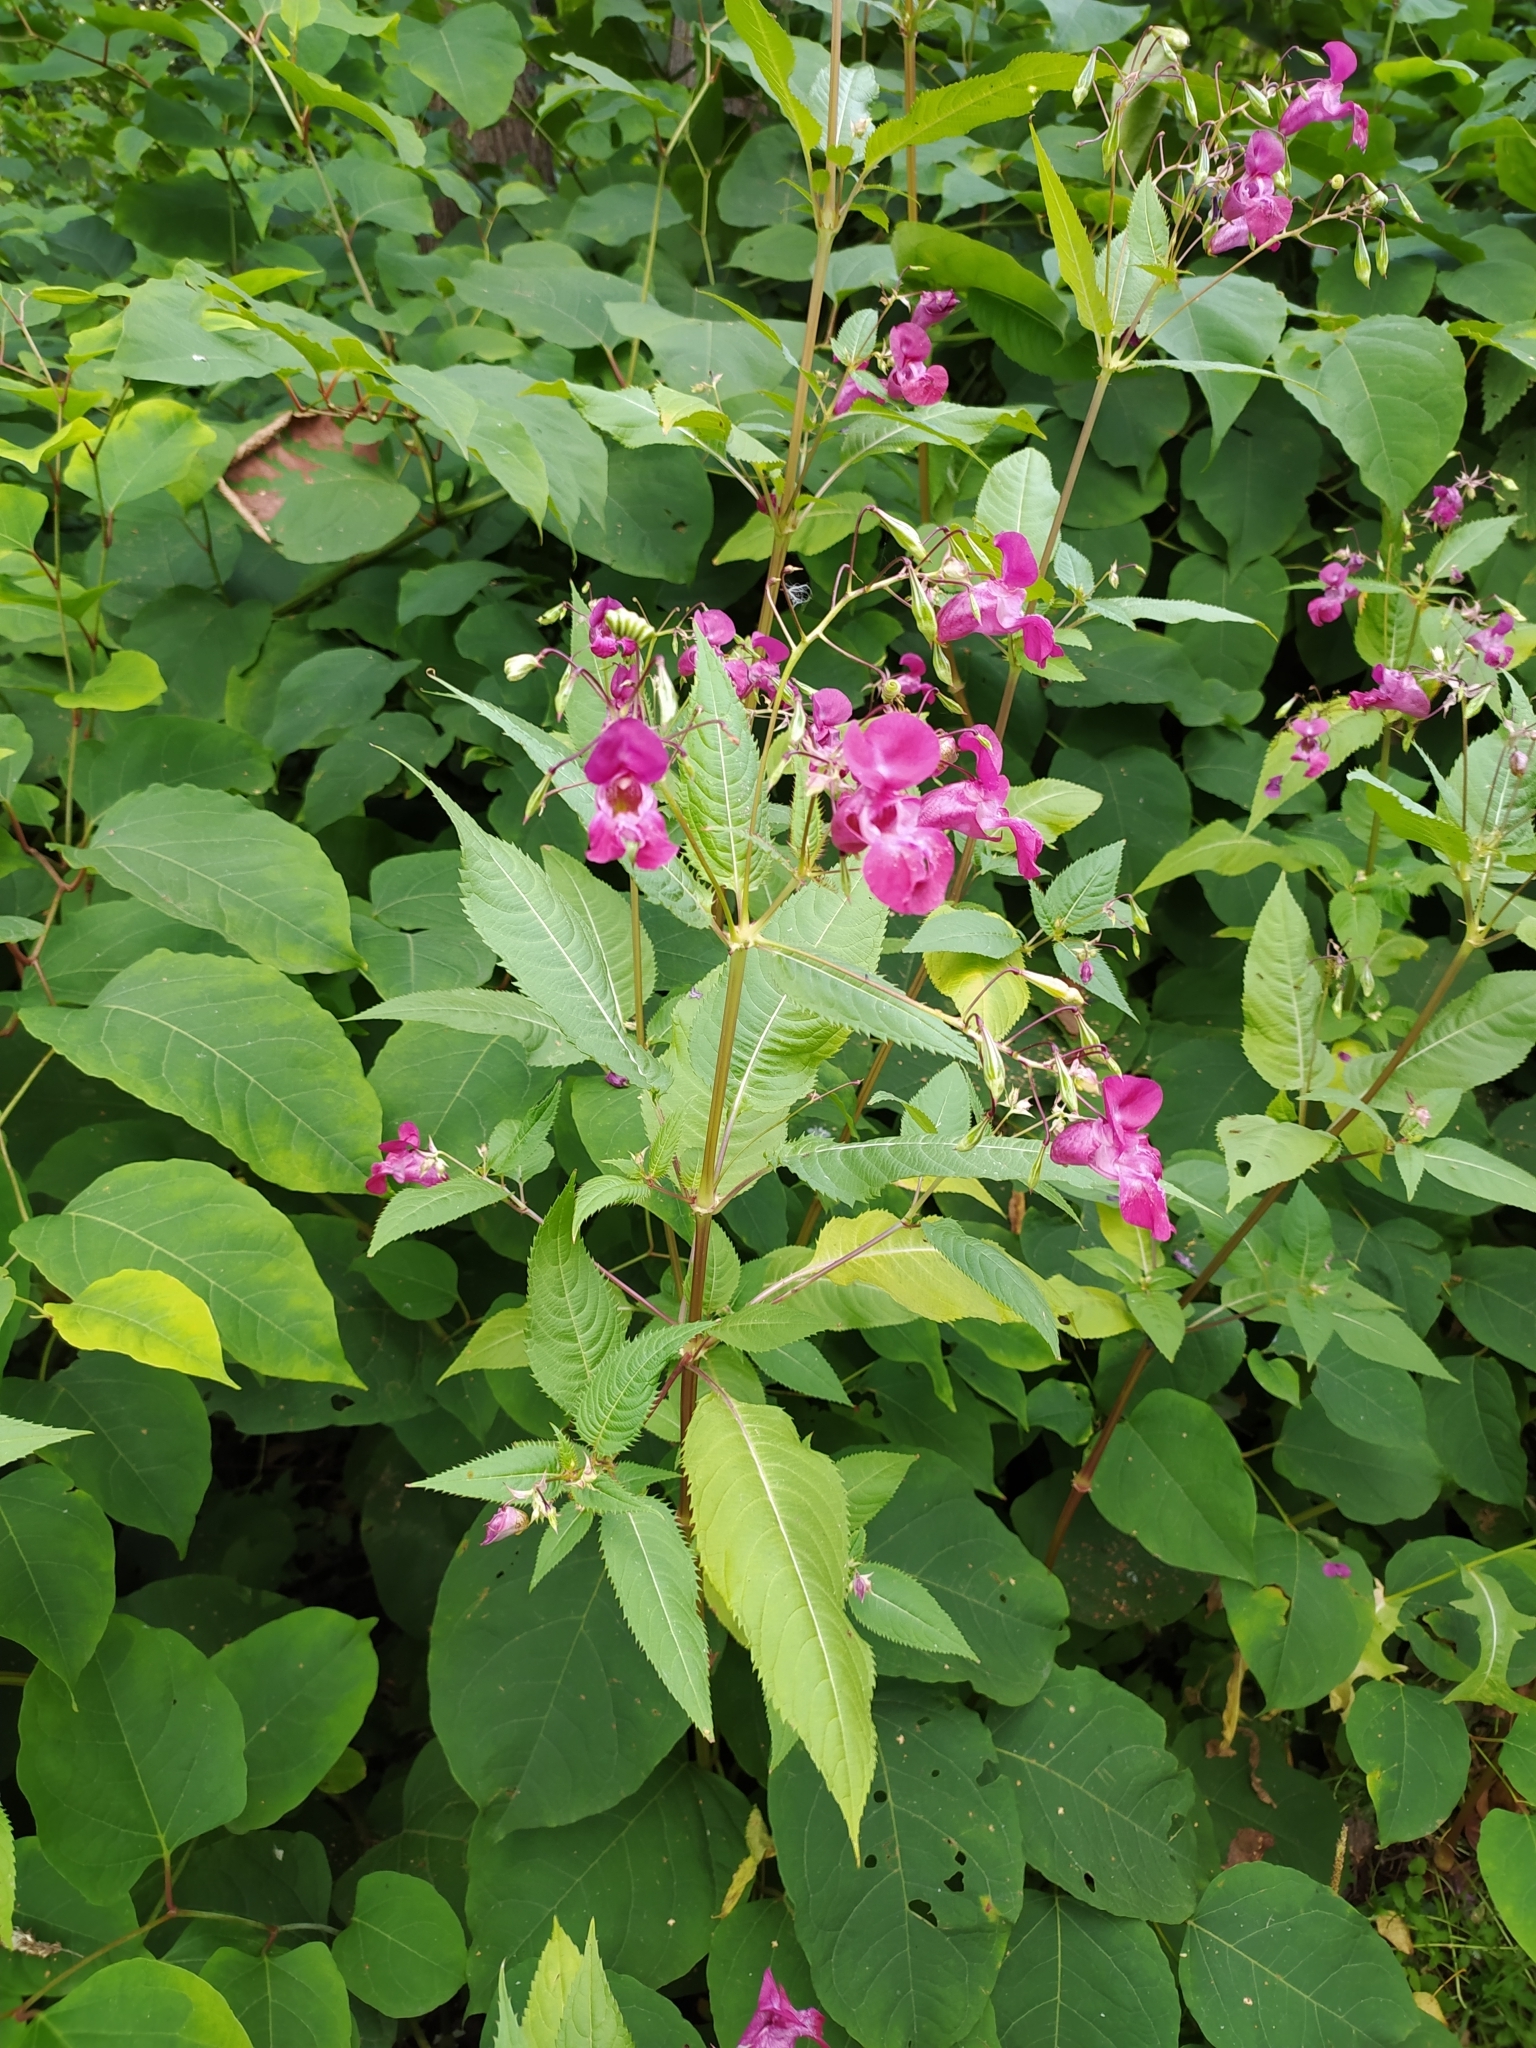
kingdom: Plantae
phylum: Tracheophyta
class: Magnoliopsida
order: Ericales
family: Balsaminaceae
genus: Impatiens
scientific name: Impatiens glandulifera
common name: Himalayan balsam
